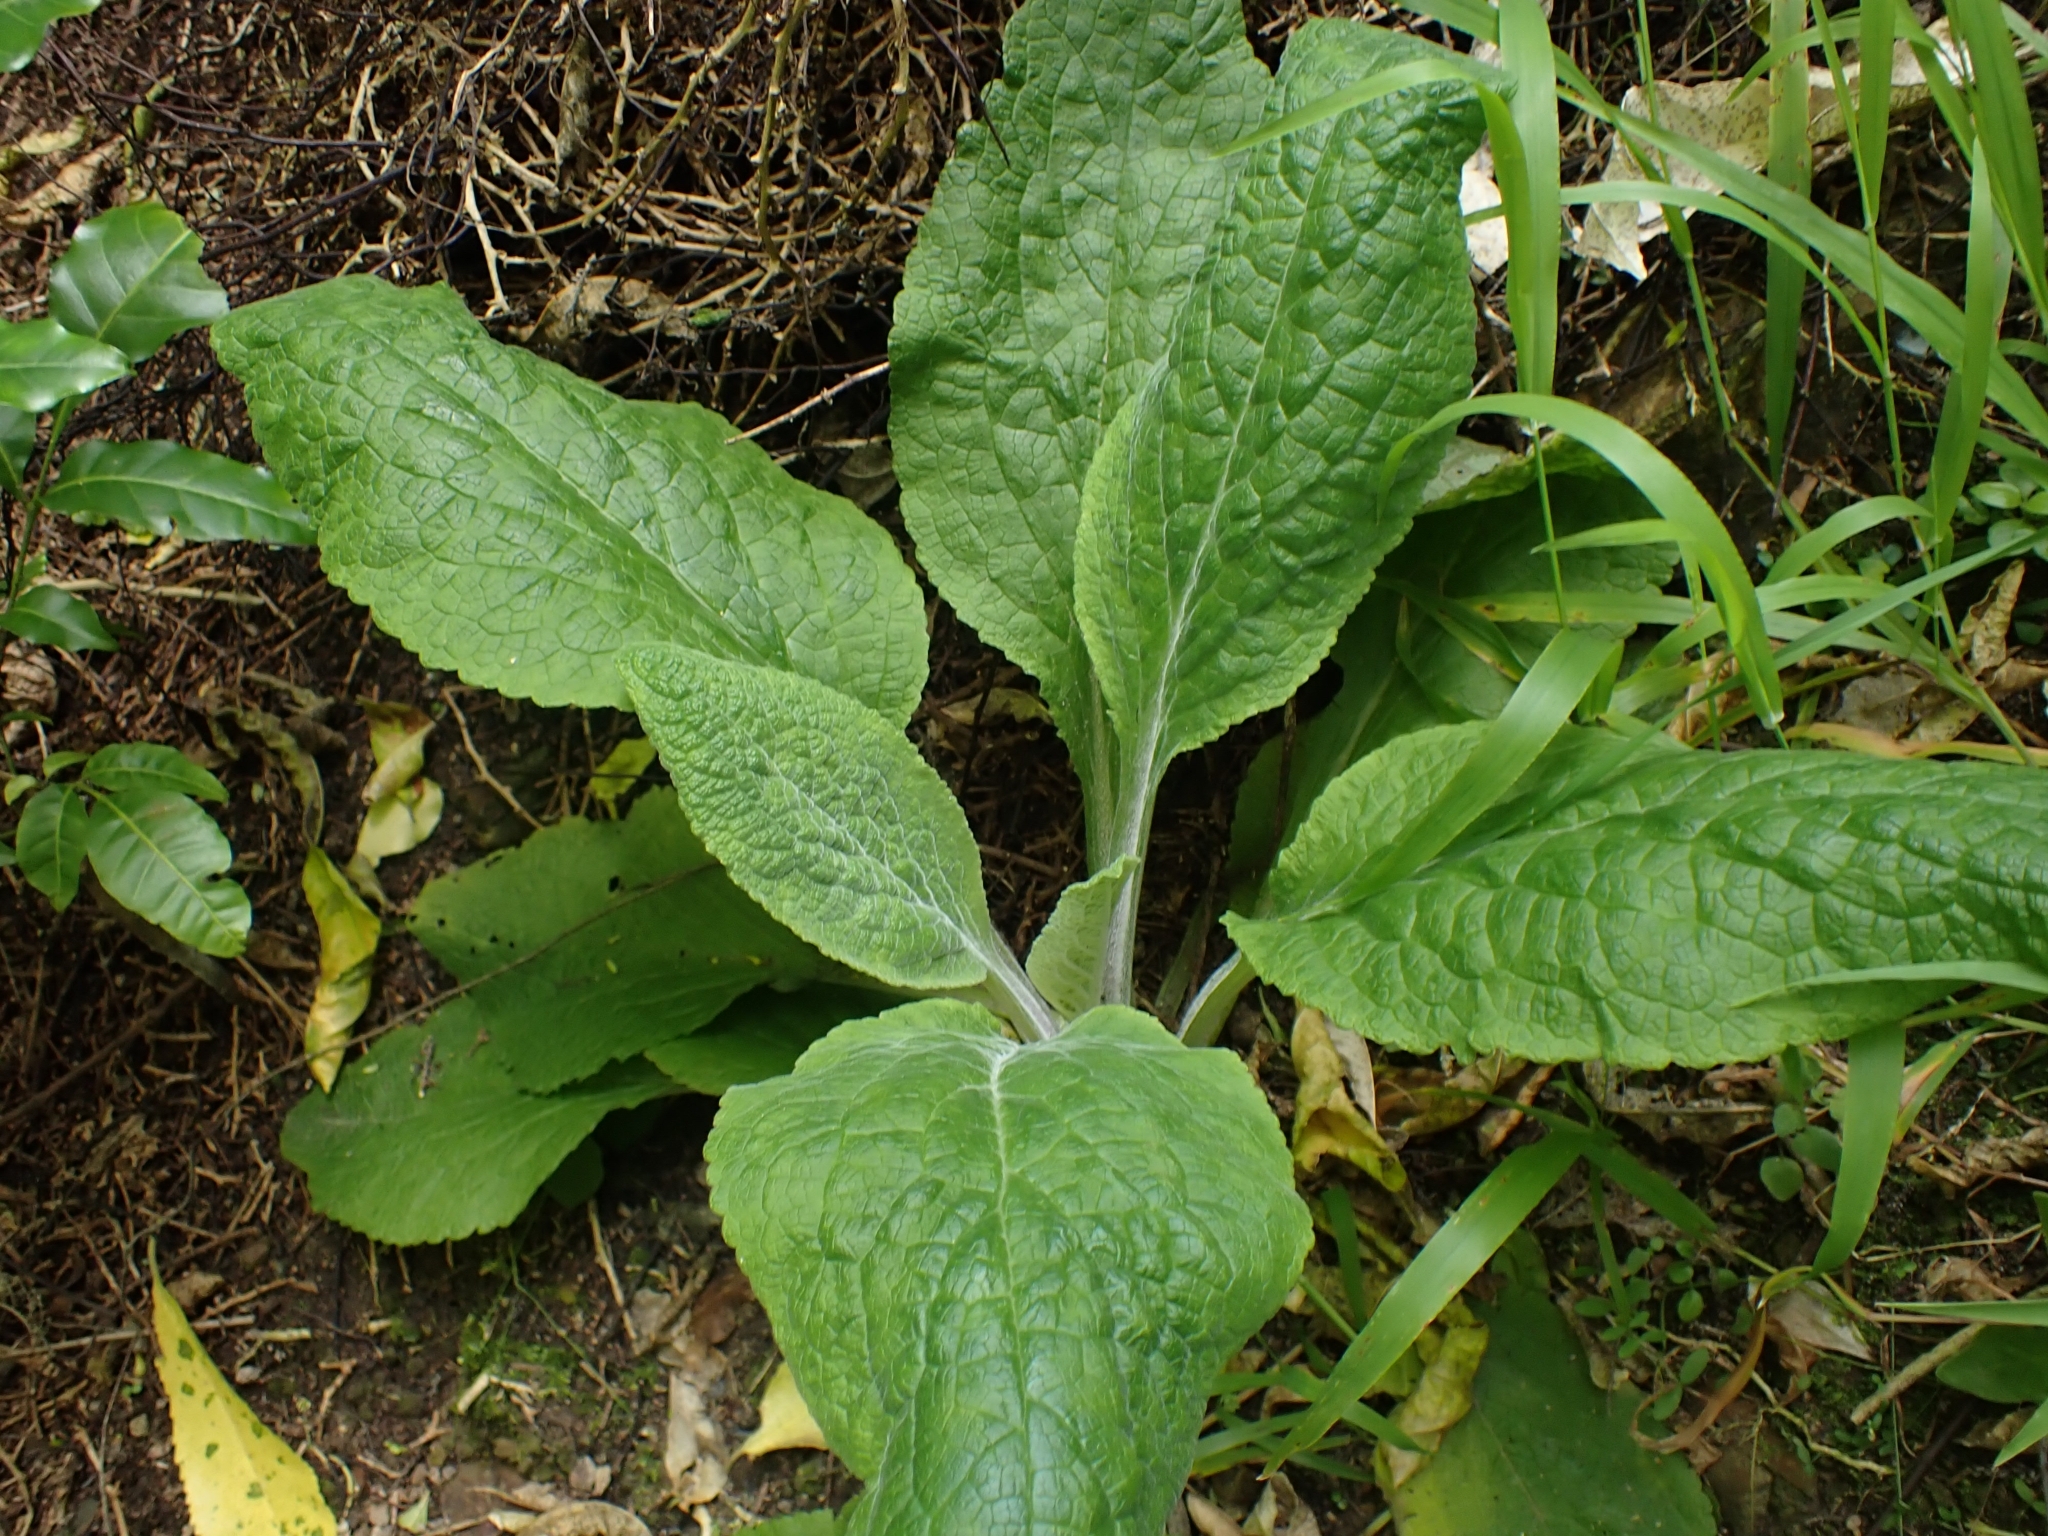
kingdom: Plantae
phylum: Tracheophyta
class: Magnoliopsida
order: Lamiales
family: Plantaginaceae
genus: Digitalis
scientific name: Digitalis purpurea
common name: Foxglove
